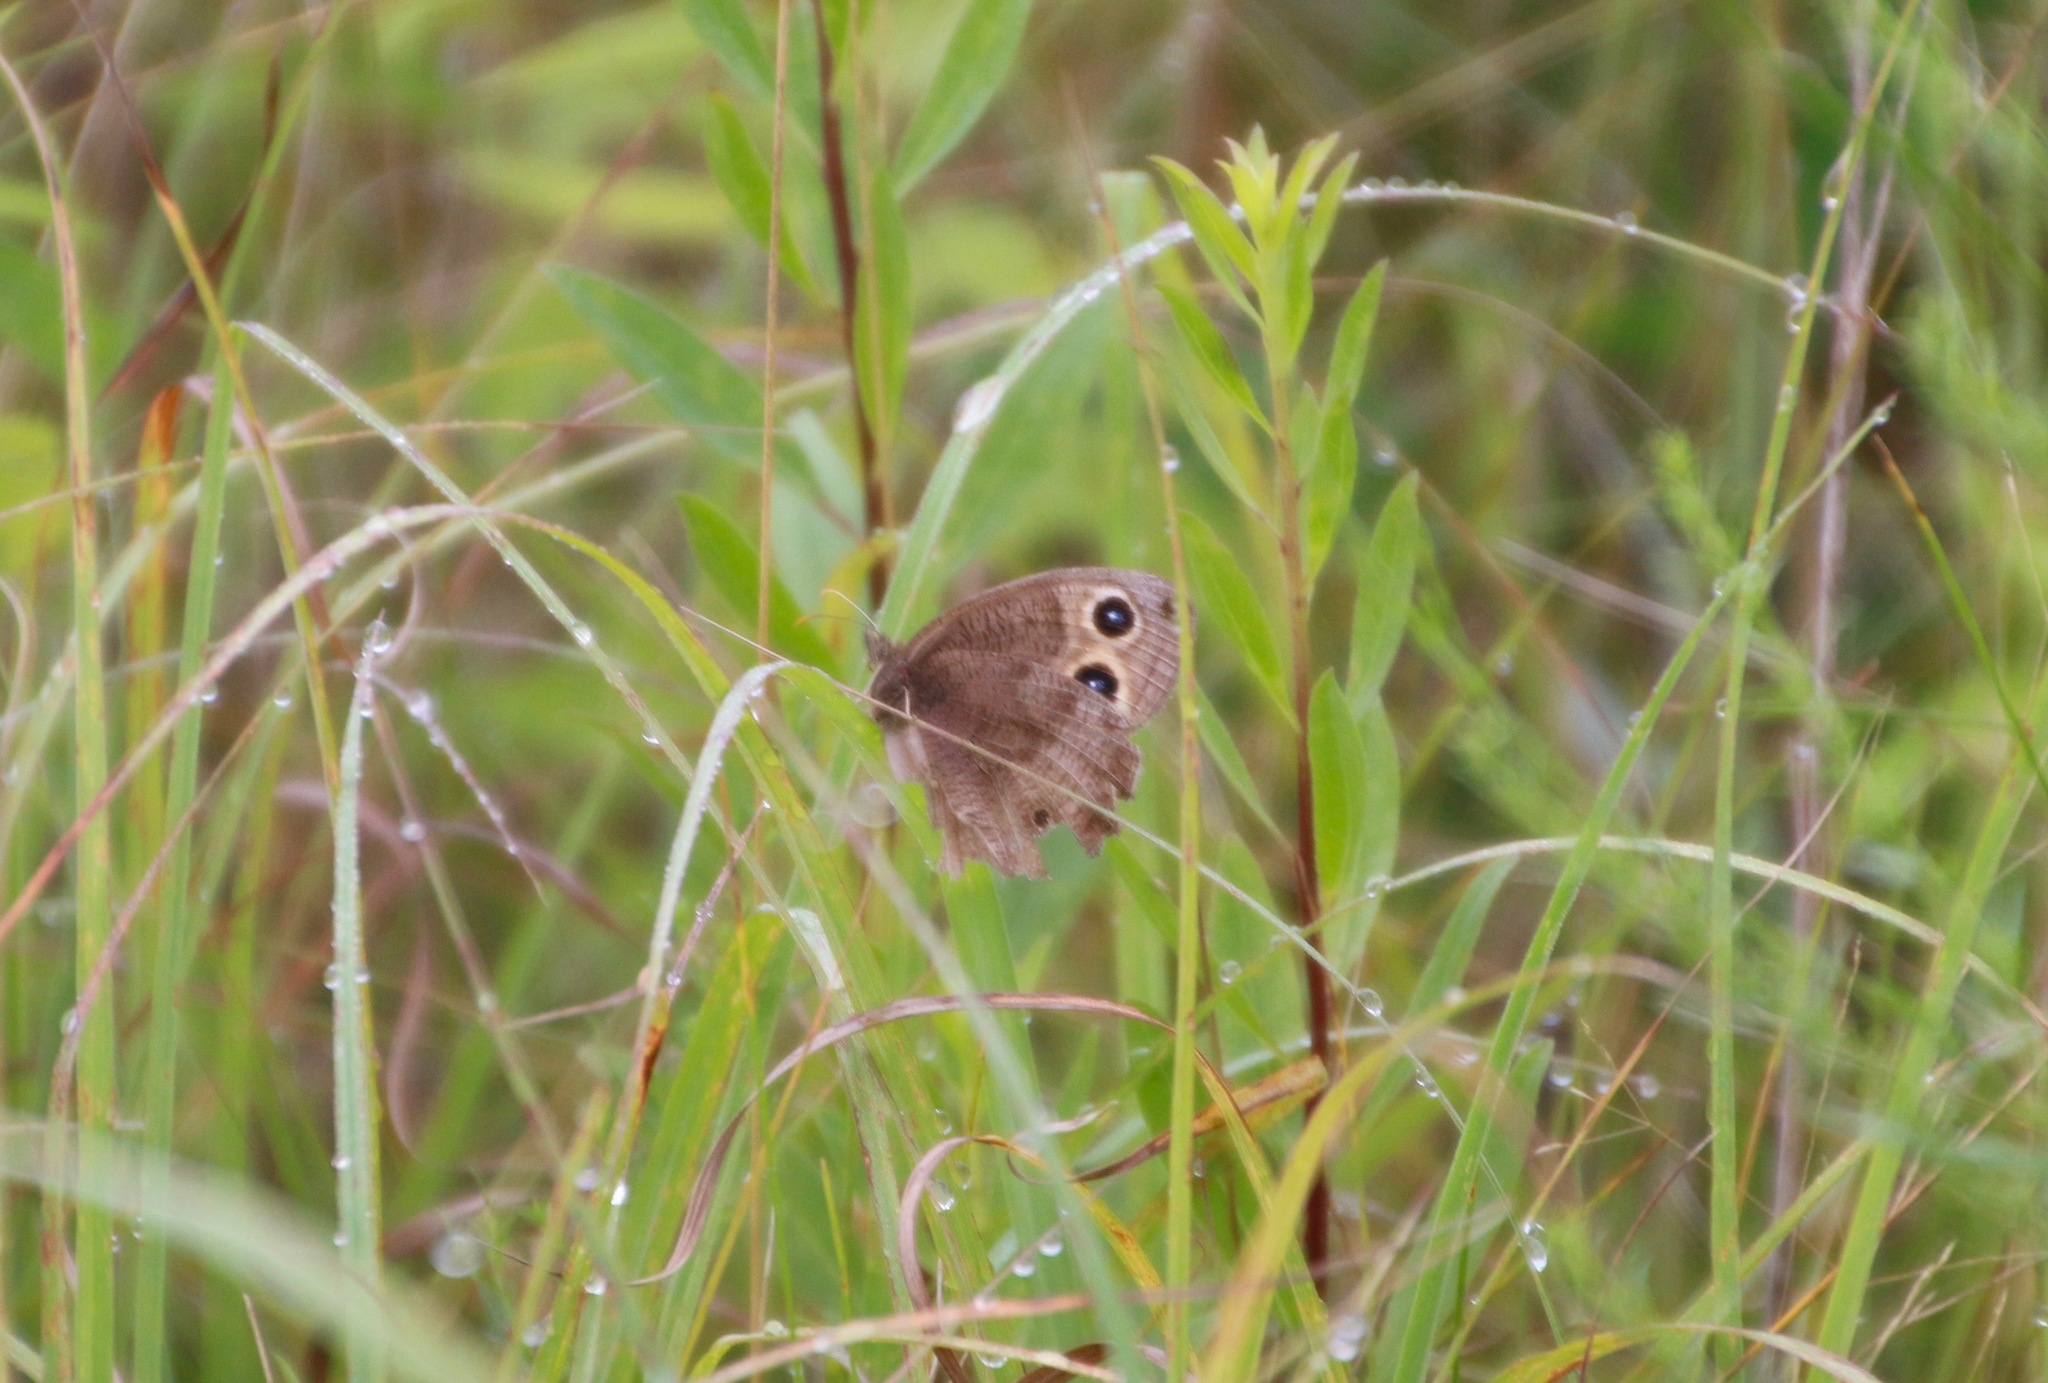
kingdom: Animalia
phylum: Arthropoda
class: Insecta
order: Lepidoptera
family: Nymphalidae
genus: Cercyonis
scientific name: Cercyonis pegala
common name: Common wood-nymph
